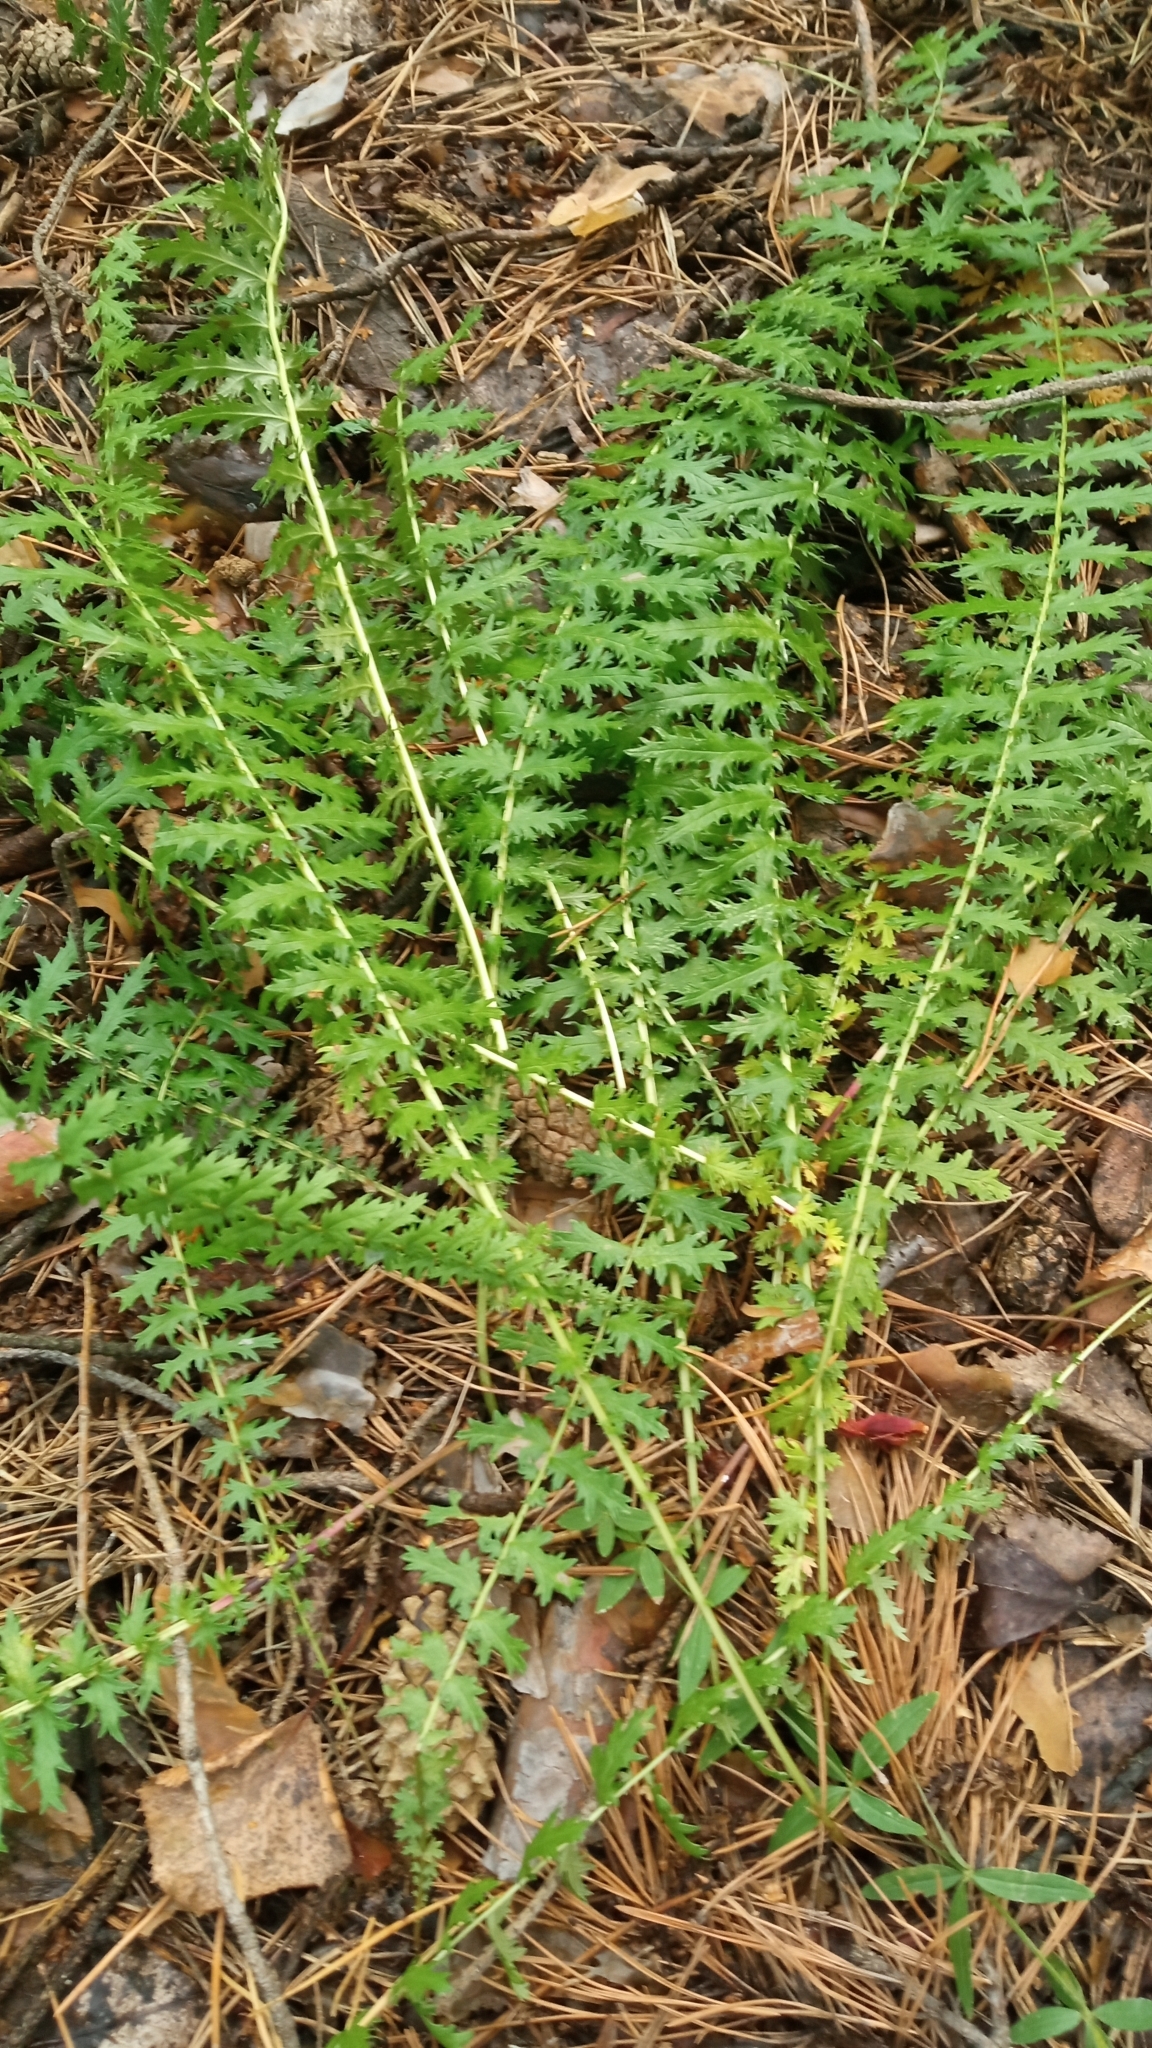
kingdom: Plantae
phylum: Tracheophyta
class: Magnoliopsida
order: Rosales
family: Rosaceae
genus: Filipendula
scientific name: Filipendula vulgaris
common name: Dropwort
